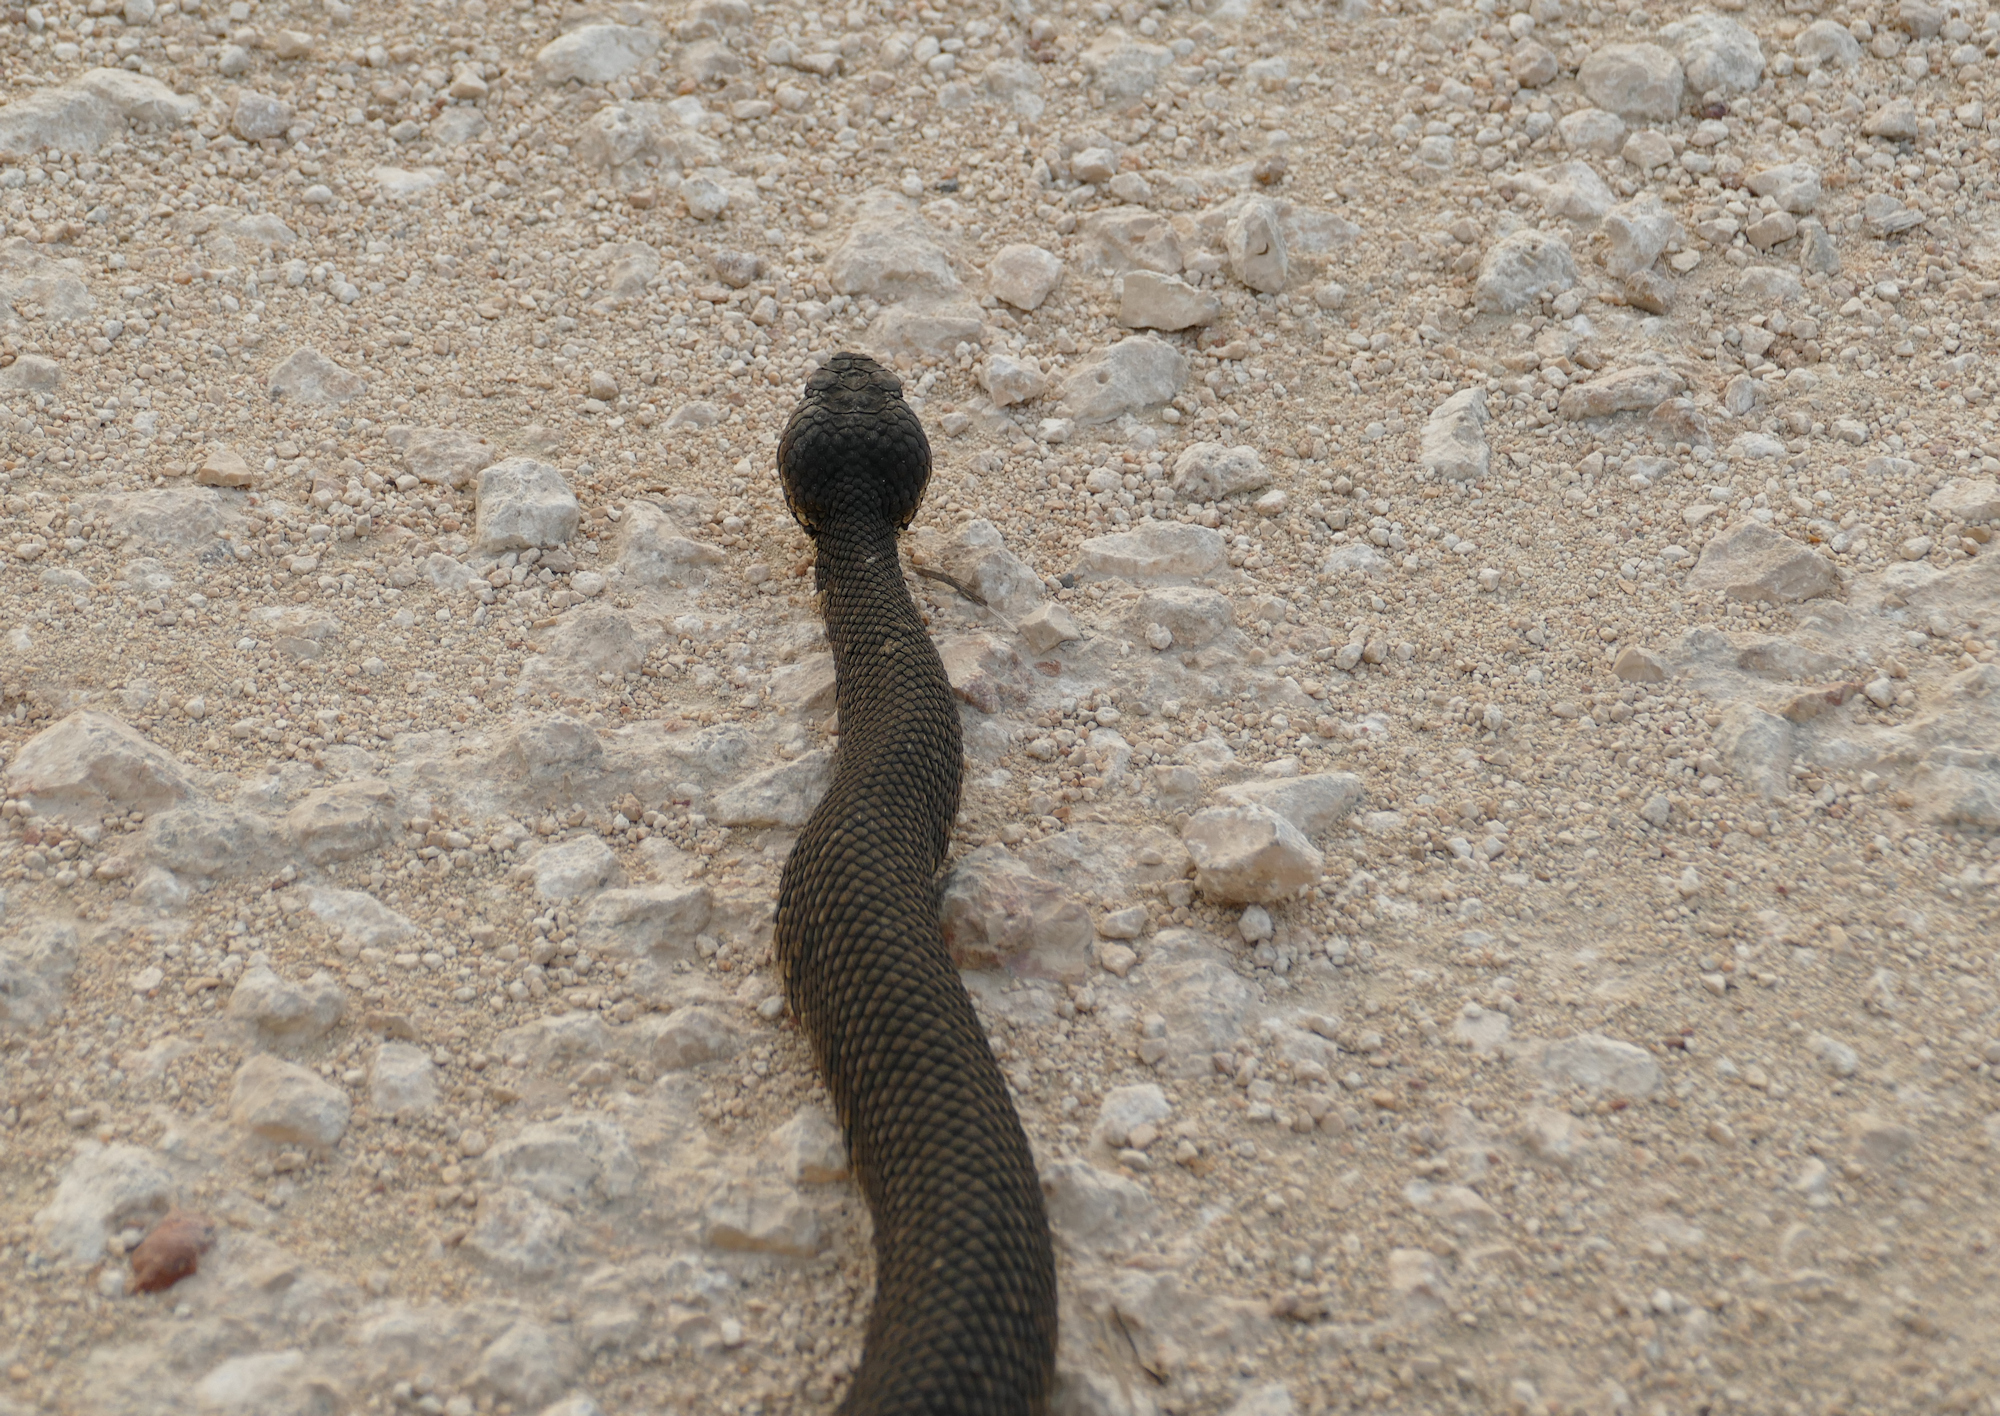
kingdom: Animalia
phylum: Chordata
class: Squamata
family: Viperidae
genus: Agkistrodon
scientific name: Agkistrodon piscivorus
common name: Cottonmouth
